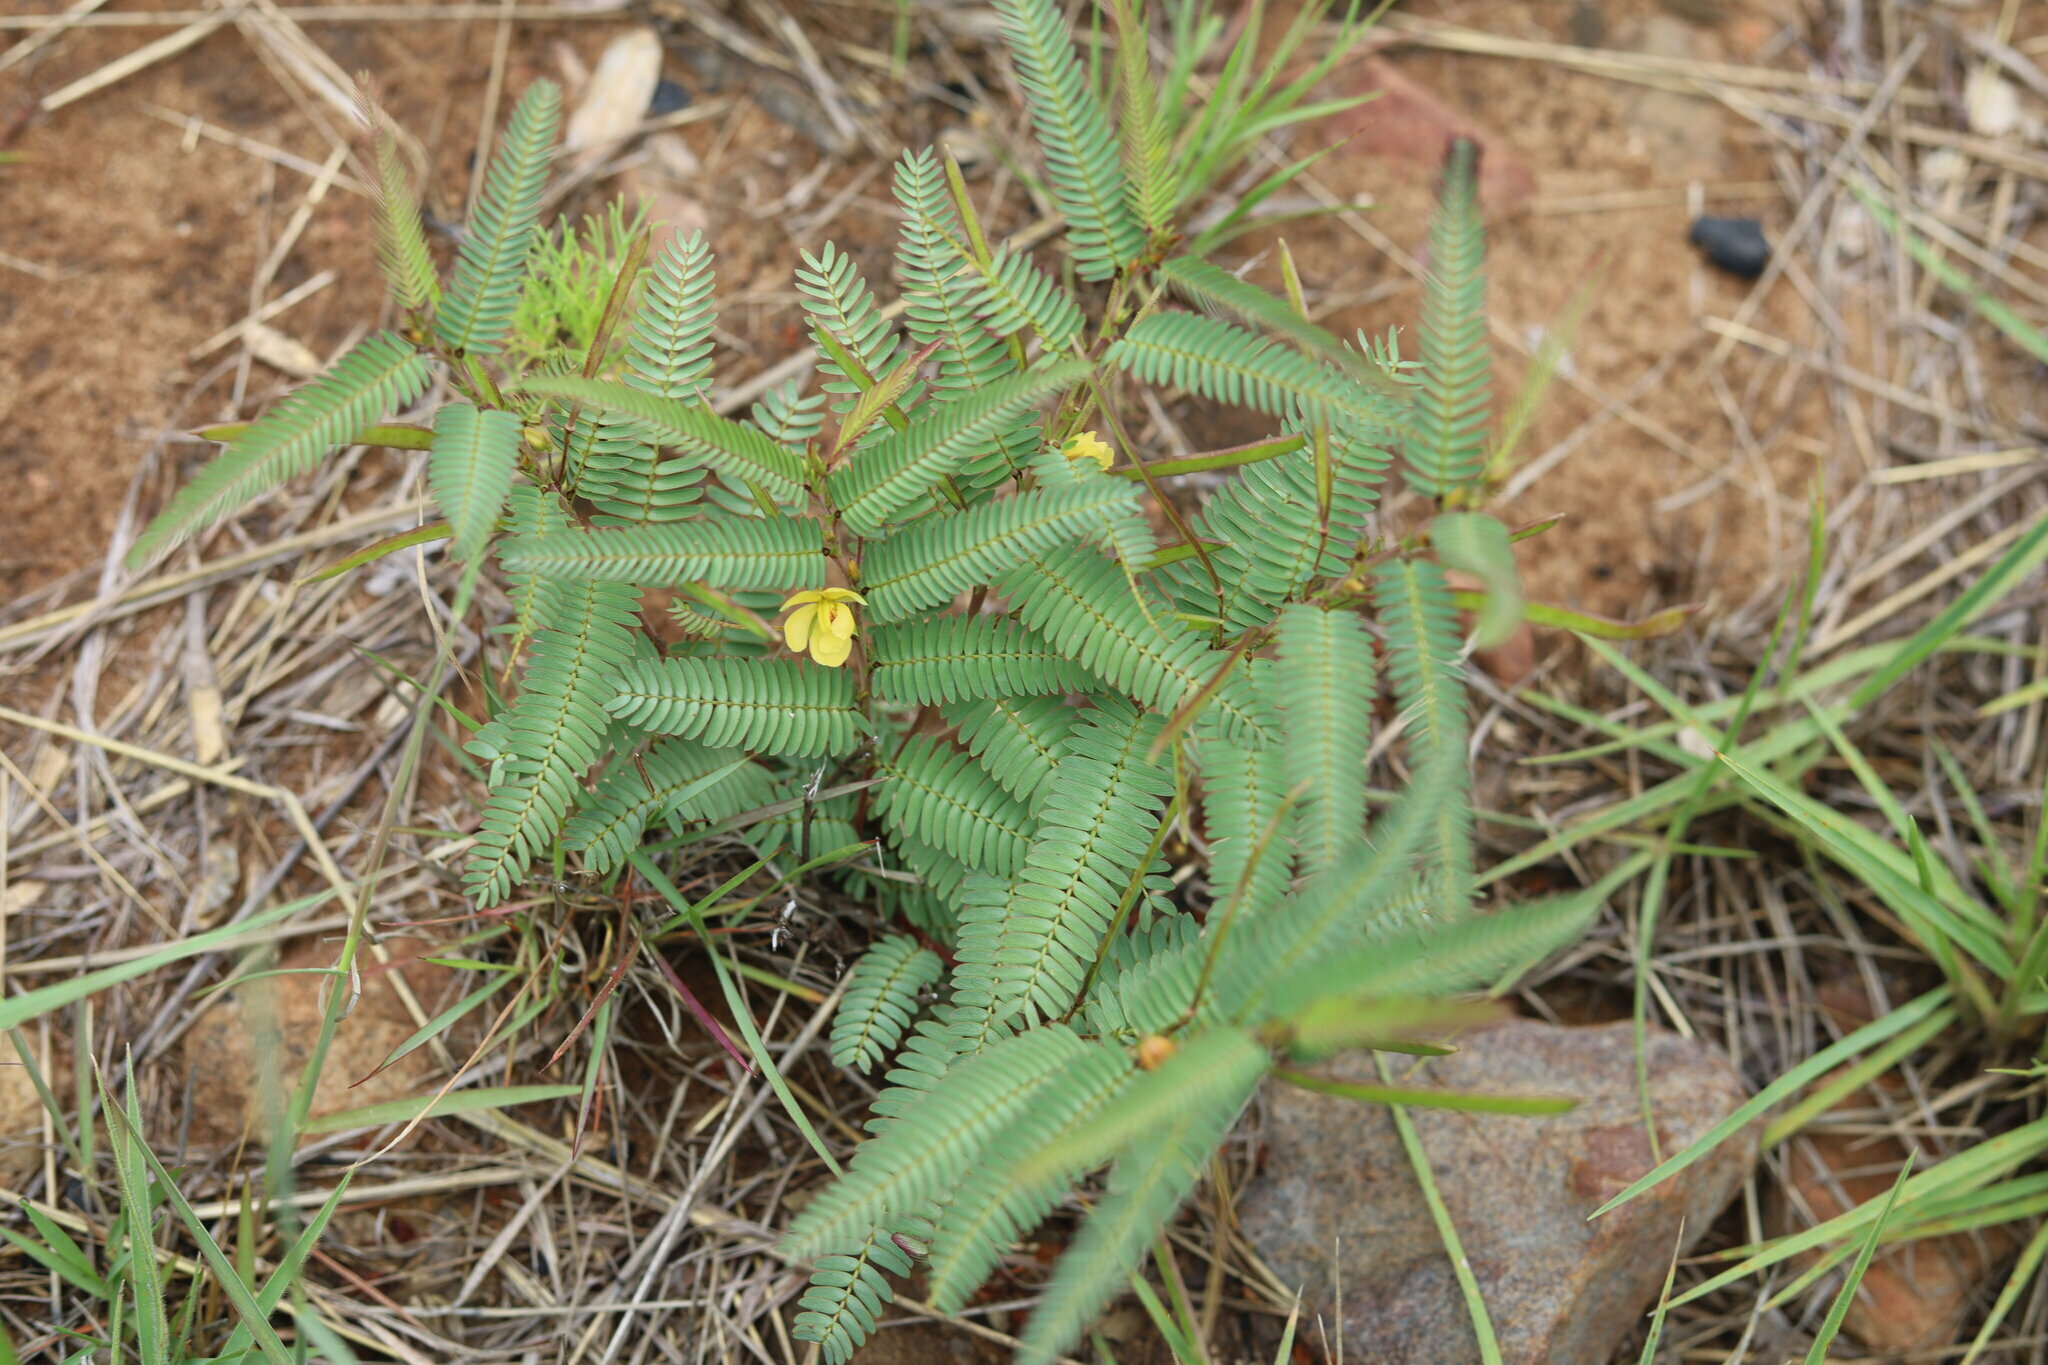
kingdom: Plantae
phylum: Tracheophyta
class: Magnoliopsida
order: Fabales
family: Fabaceae
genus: Chamaecrista
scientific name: Chamaecrista comosa
